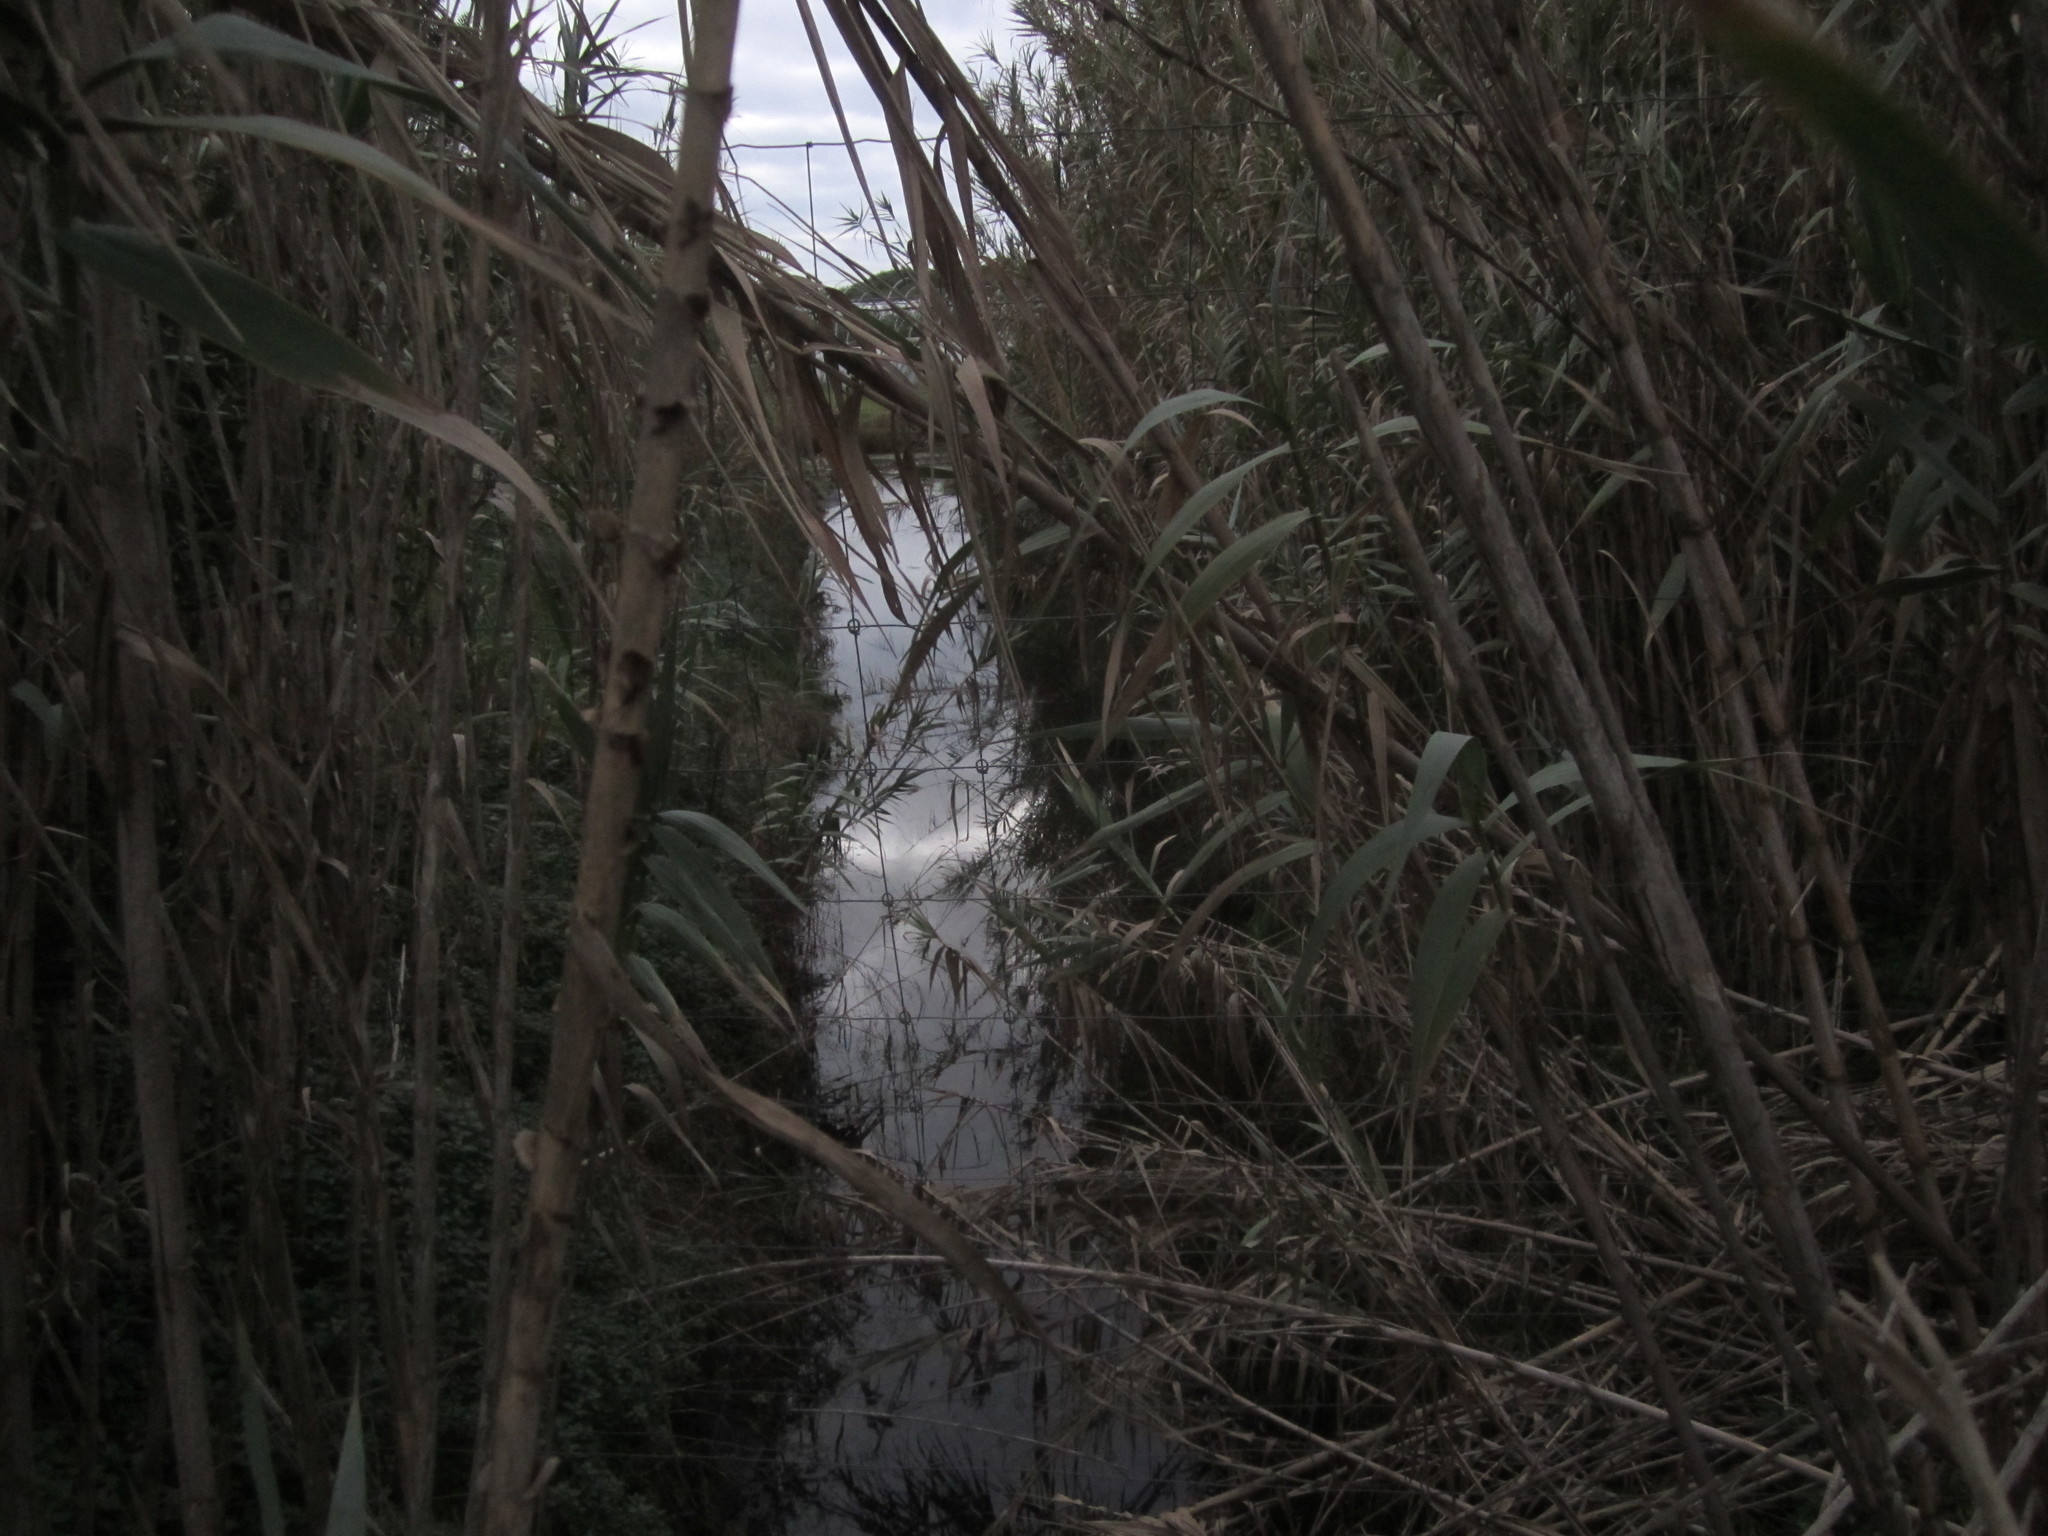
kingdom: Plantae
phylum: Tracheophyta
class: Liliopsida
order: Poales
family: Poaceae
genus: Arundo
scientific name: Arundo donax
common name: Giant reed
